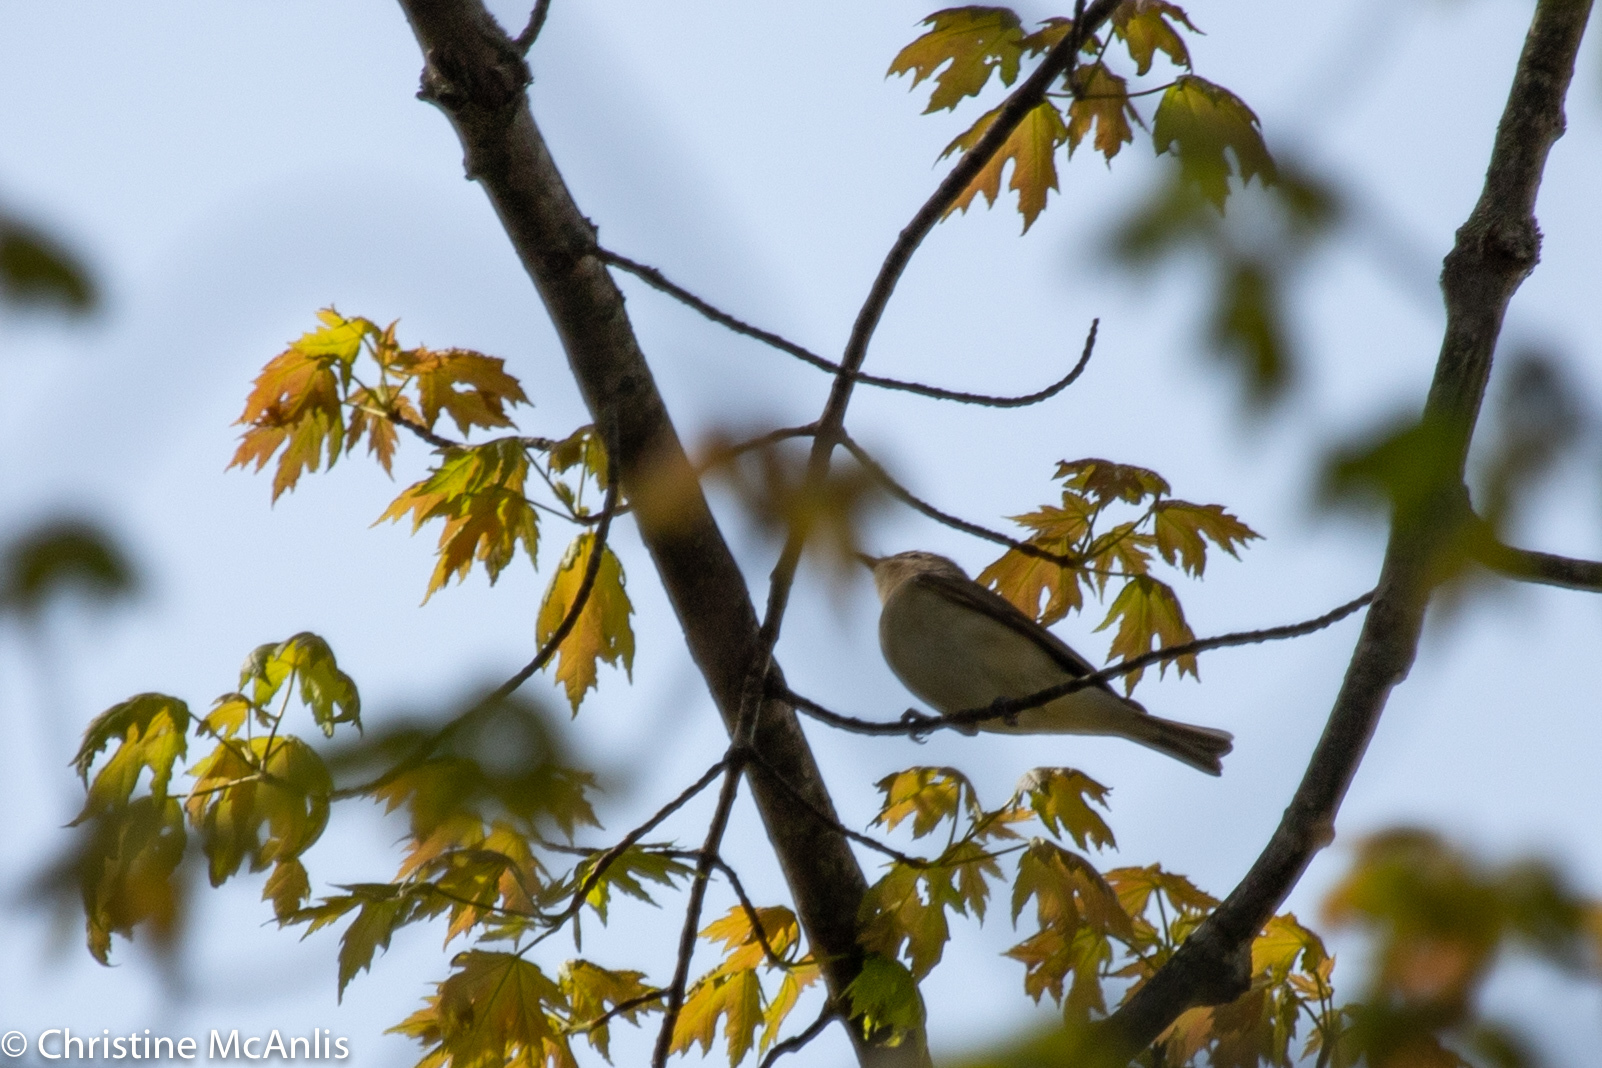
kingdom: Animalia
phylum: Chordata
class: Aves
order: Passeriformes
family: Vireonidae
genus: Vireo
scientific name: Vireo gilvus
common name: Warbling vireo
